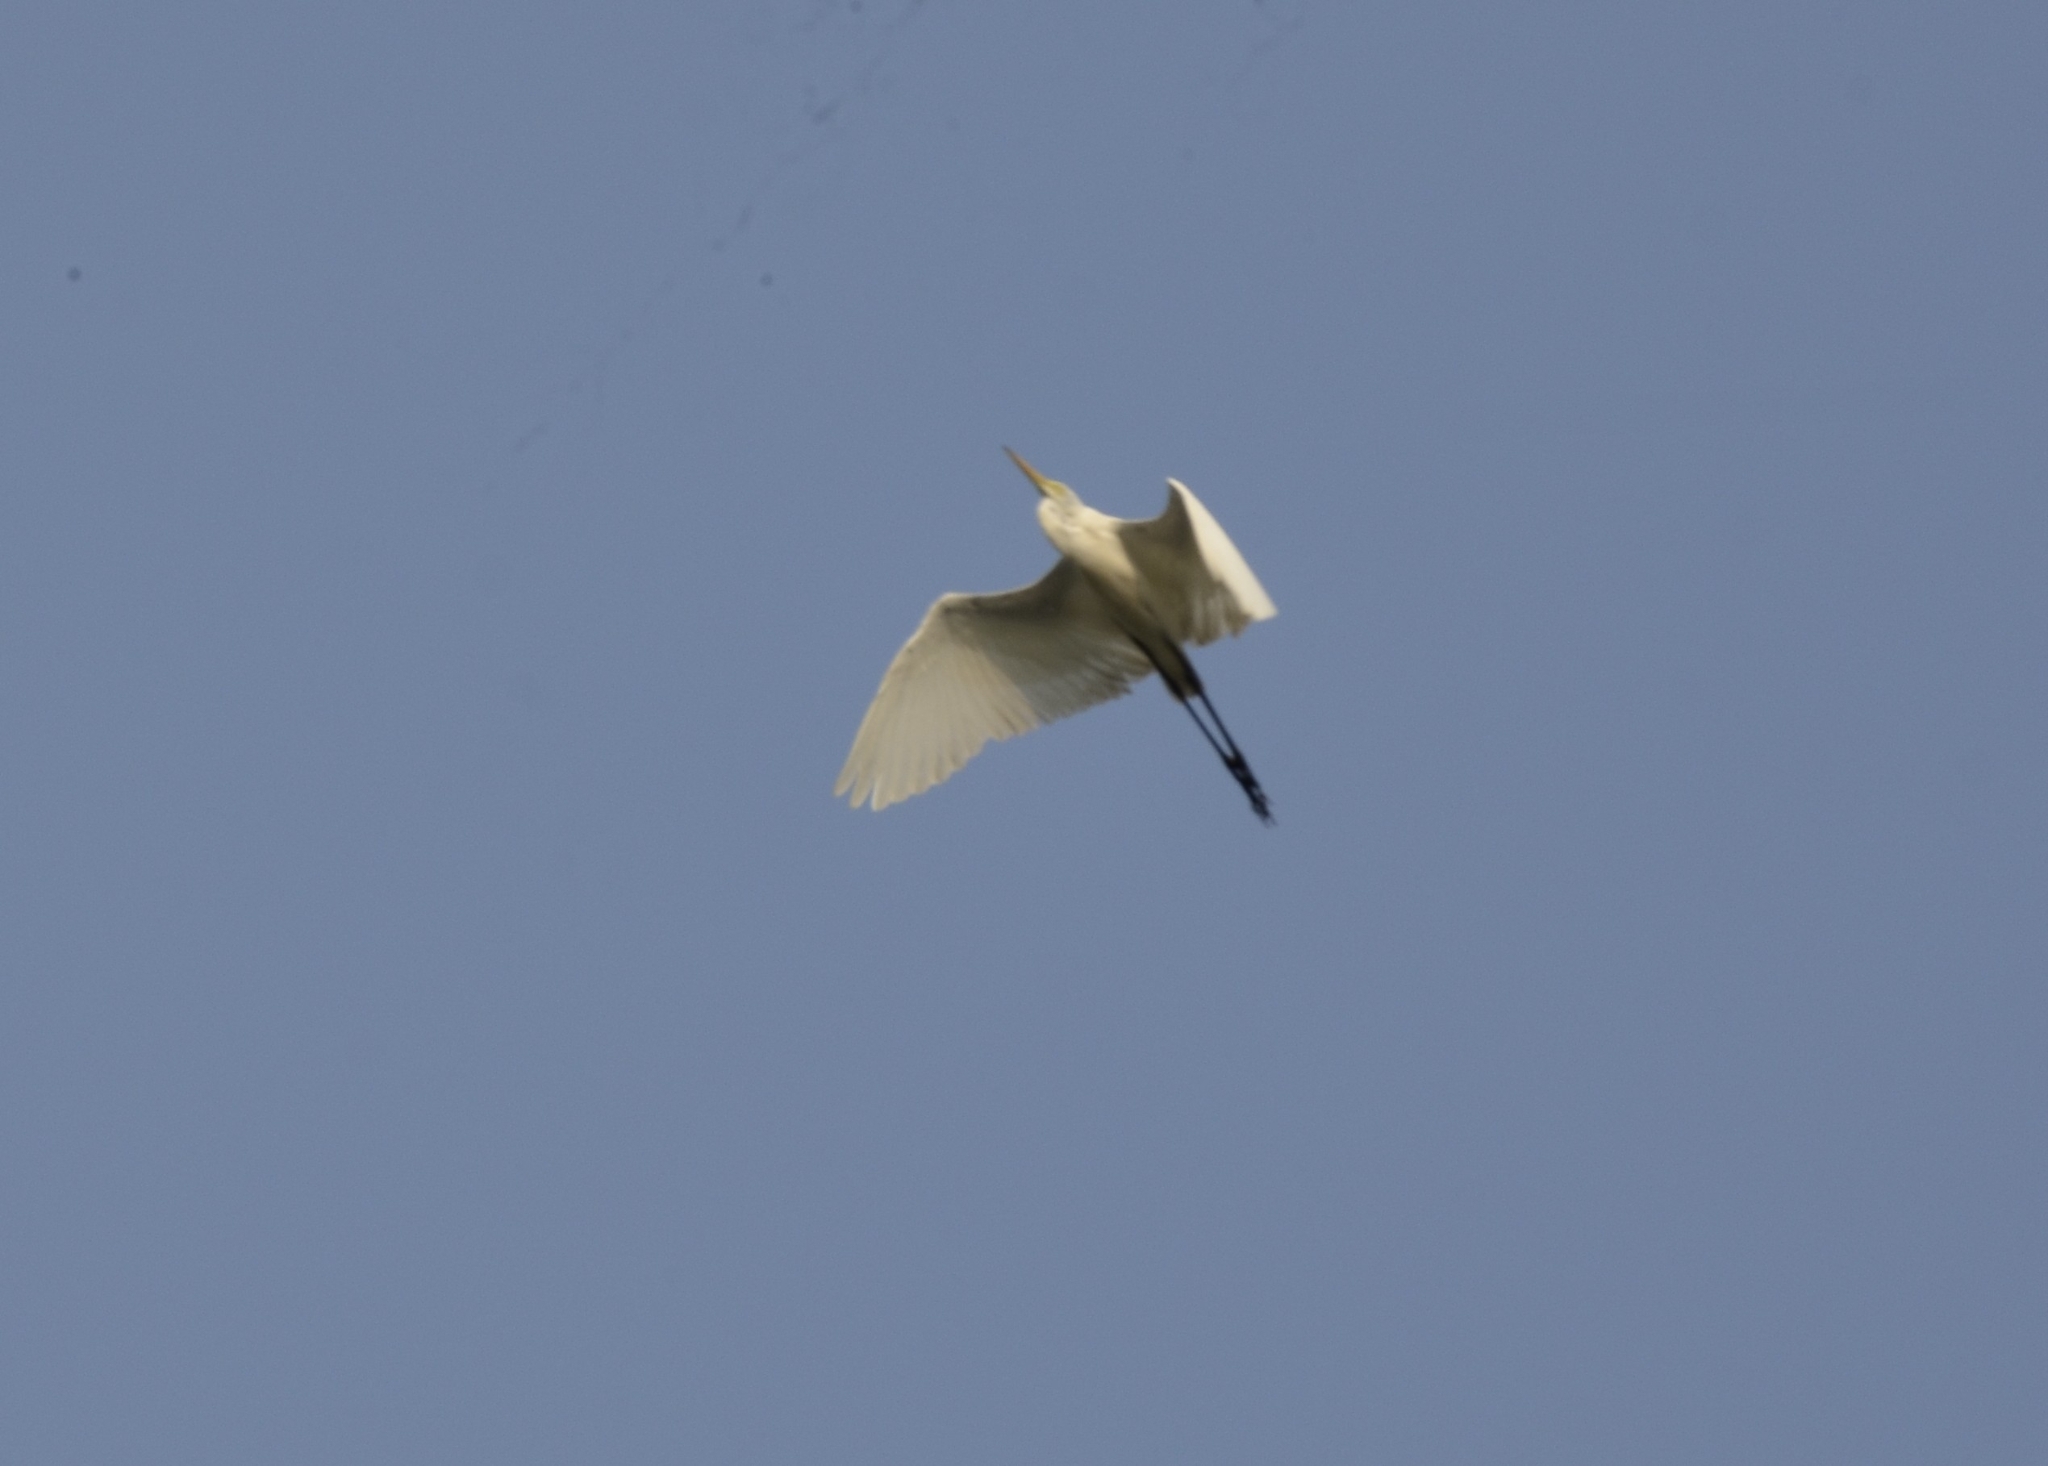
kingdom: Animalia
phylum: Chordata
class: Aves
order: Pelecaniformes
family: Ardeidae
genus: Ardea
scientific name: Ardea alba
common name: Great egret
